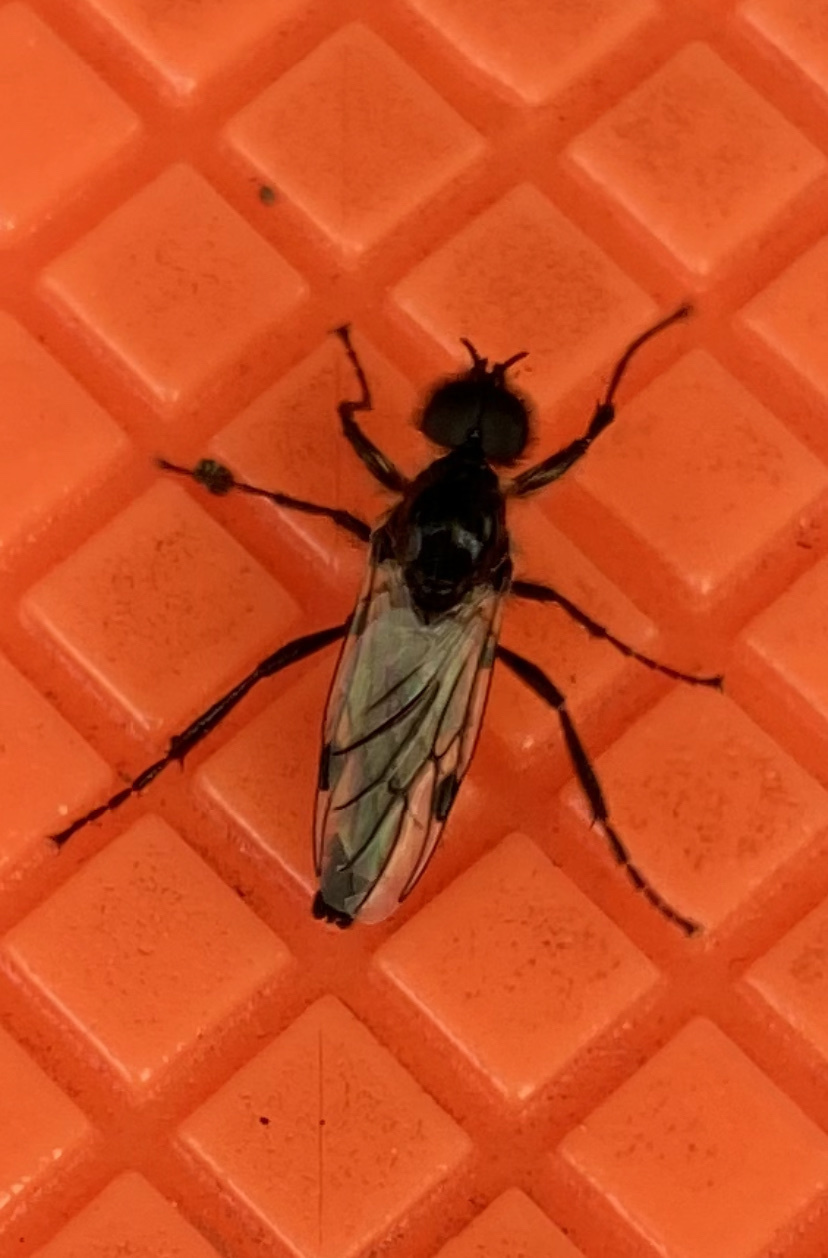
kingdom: Animalia
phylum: Arthropoda
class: Insecta
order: Diptera
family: Bibionidae
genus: Bibio
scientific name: Bibio necotus
